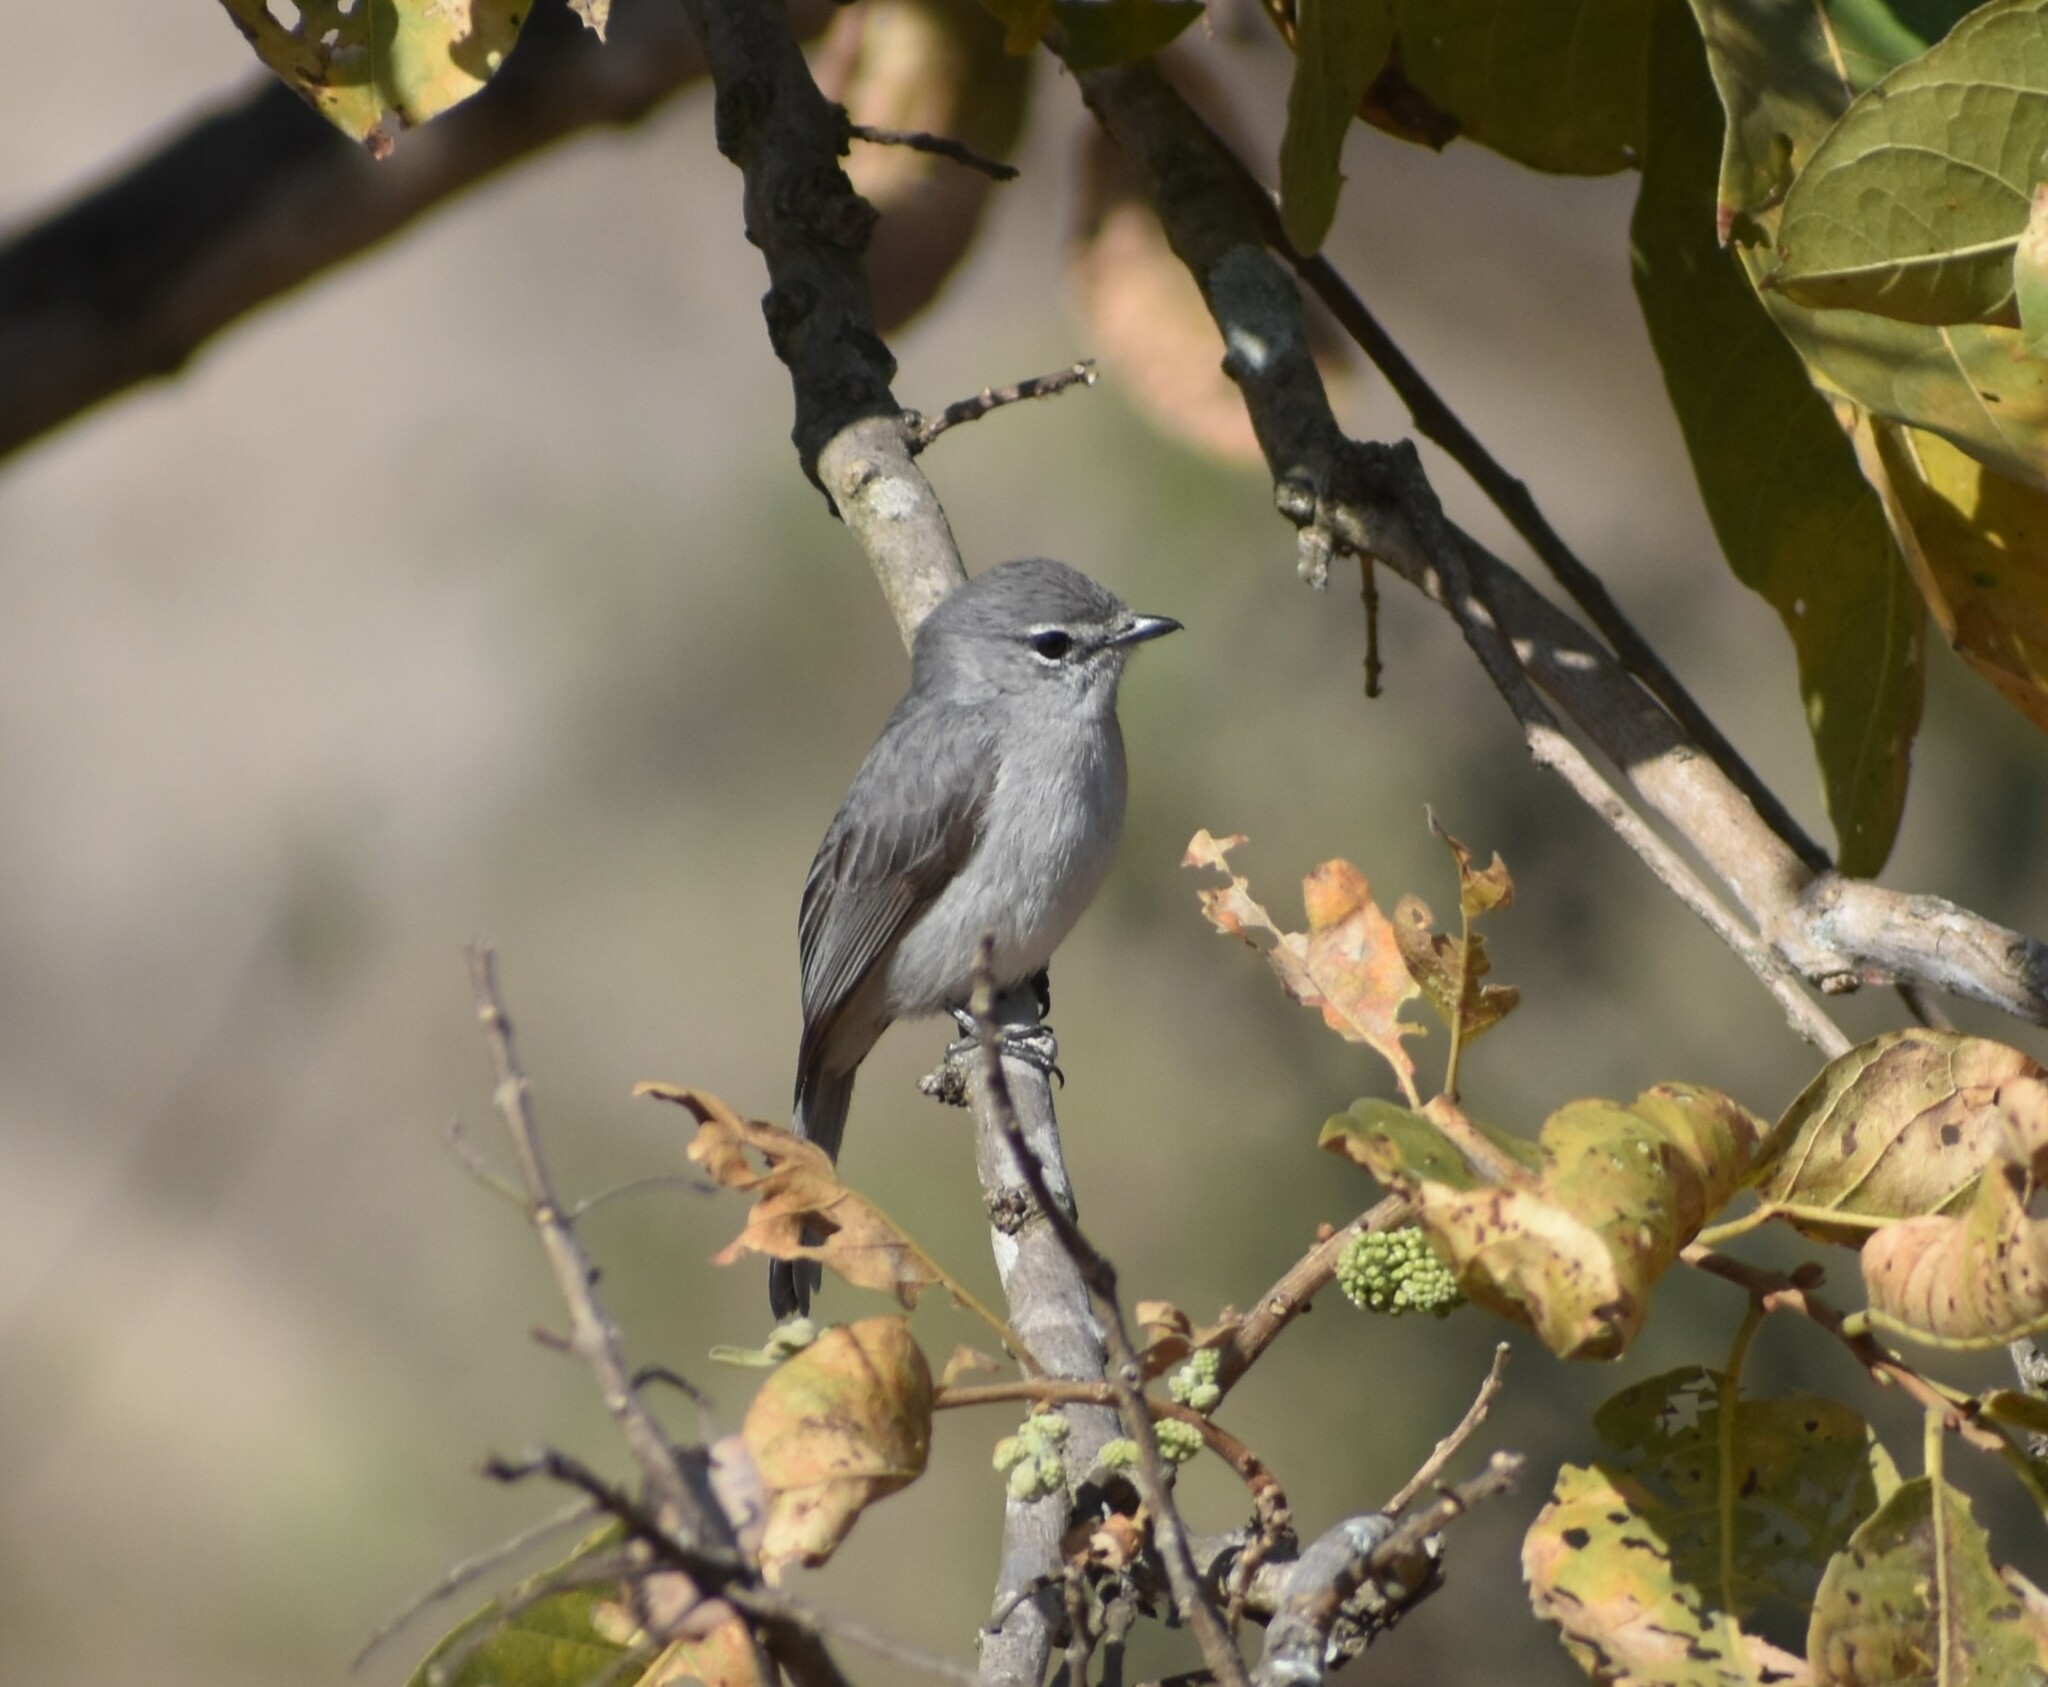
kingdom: Animalia
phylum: Chordata
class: Aves
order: Passeriformes
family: Muscicapidae
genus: Muscicapa
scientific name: Muscicapa caerulescens
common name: Ashy flycatcher
